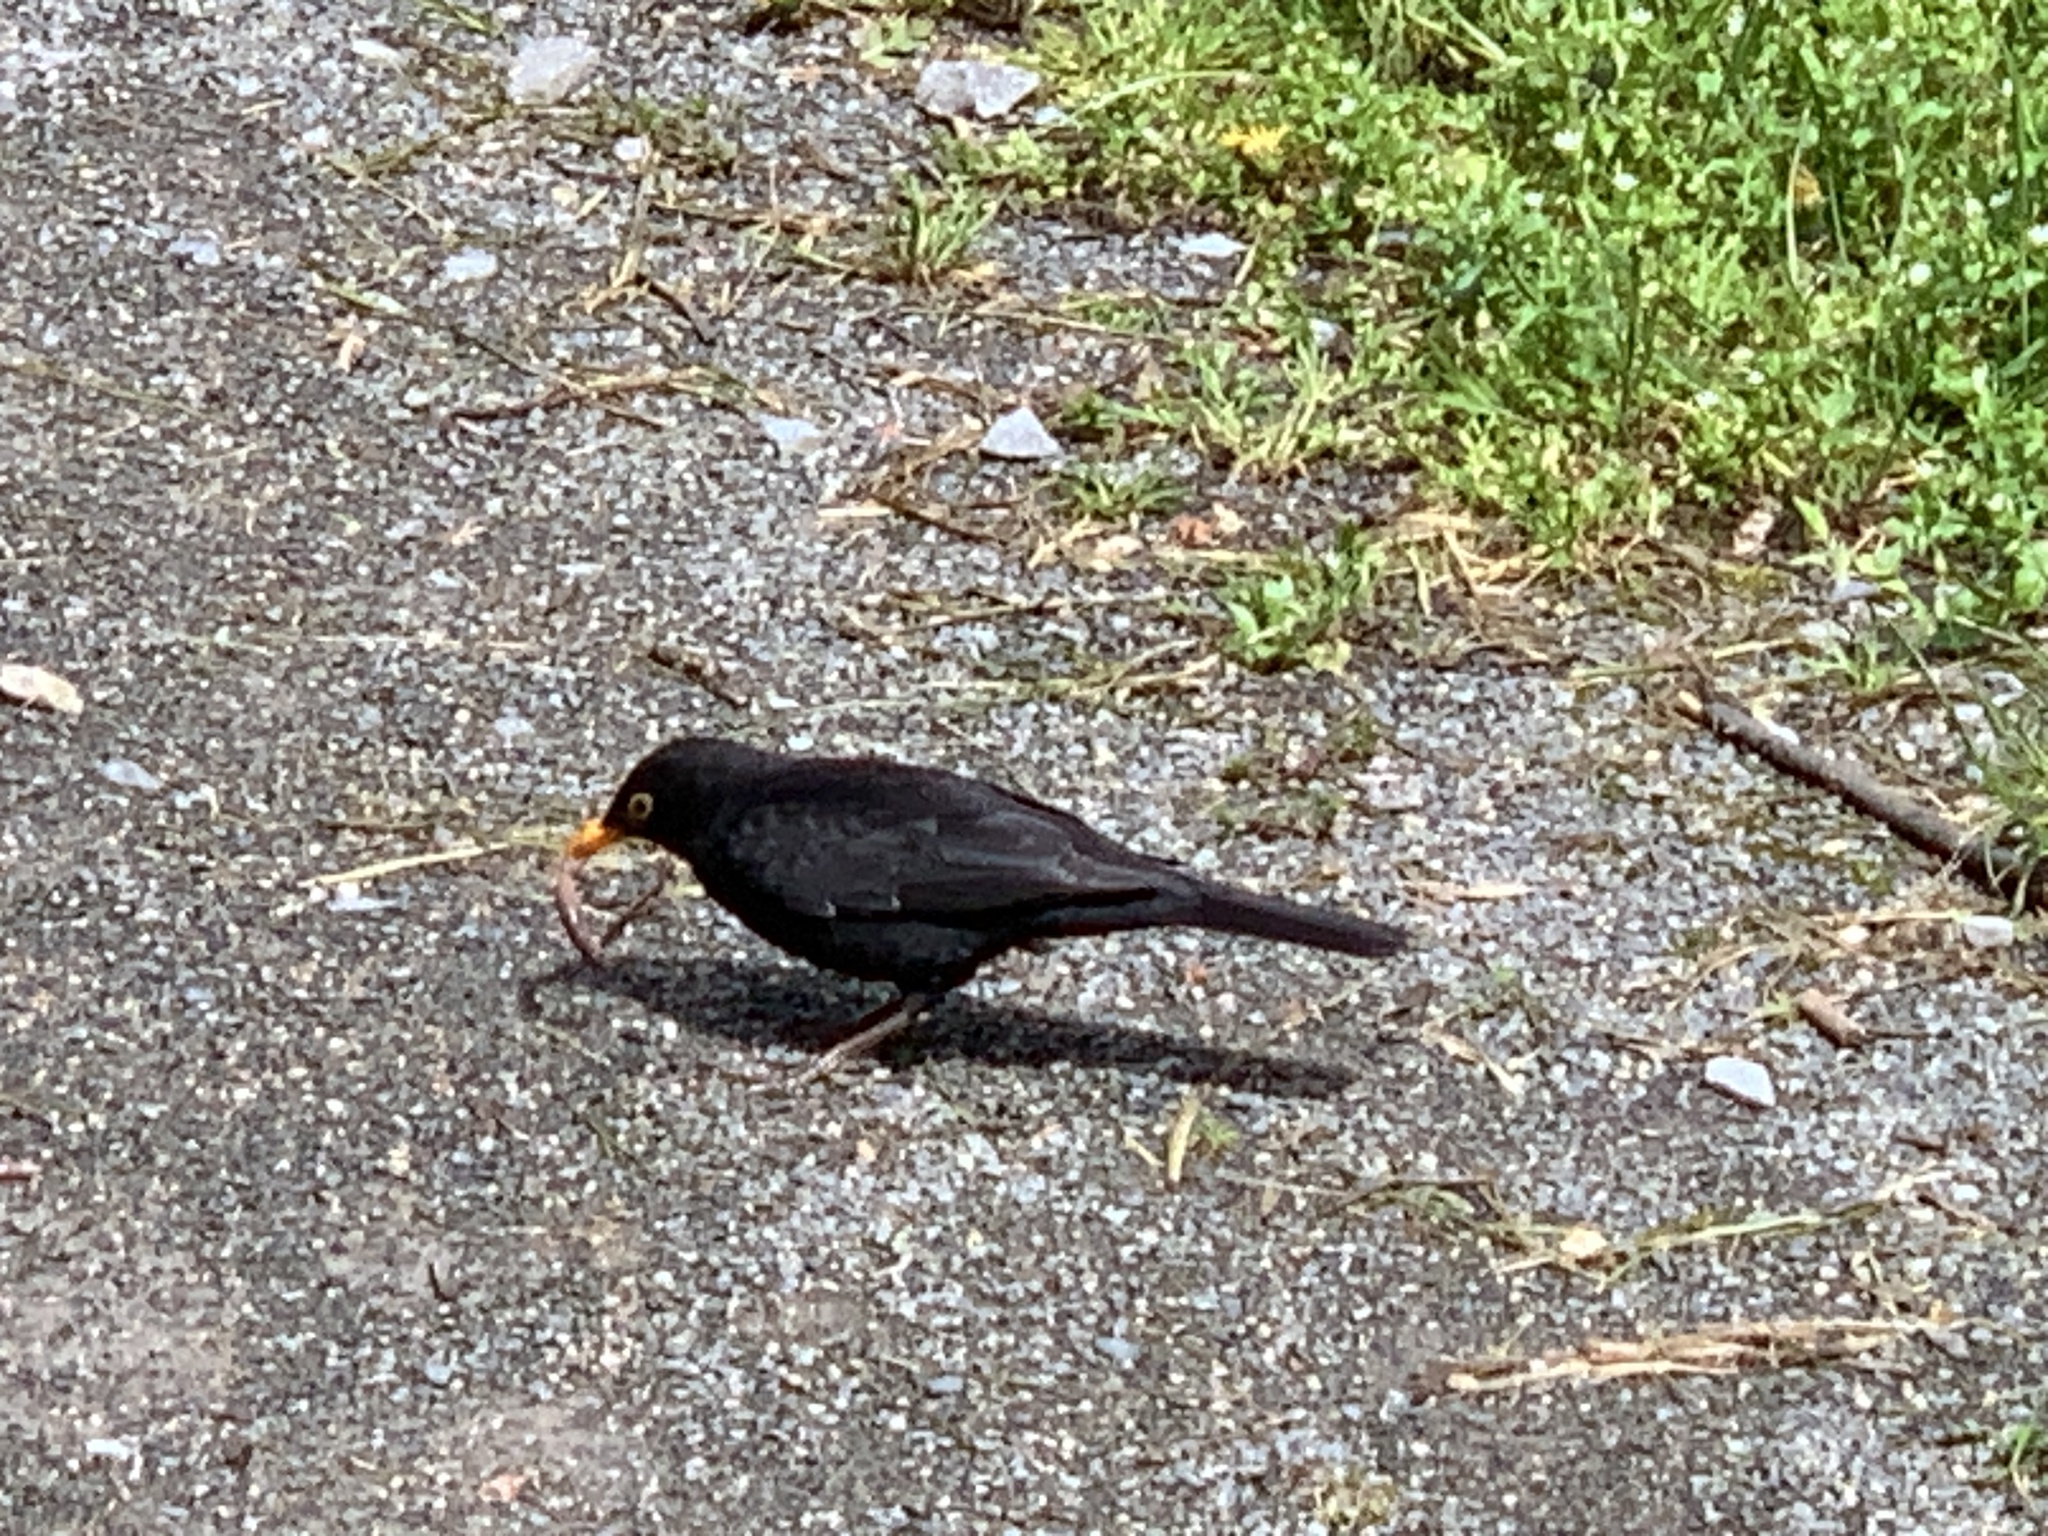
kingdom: Animalia
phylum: Chordata
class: Aves
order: Passeriformes
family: Turdidae
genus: Turdus
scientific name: Turdus merula
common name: Common blackbird
